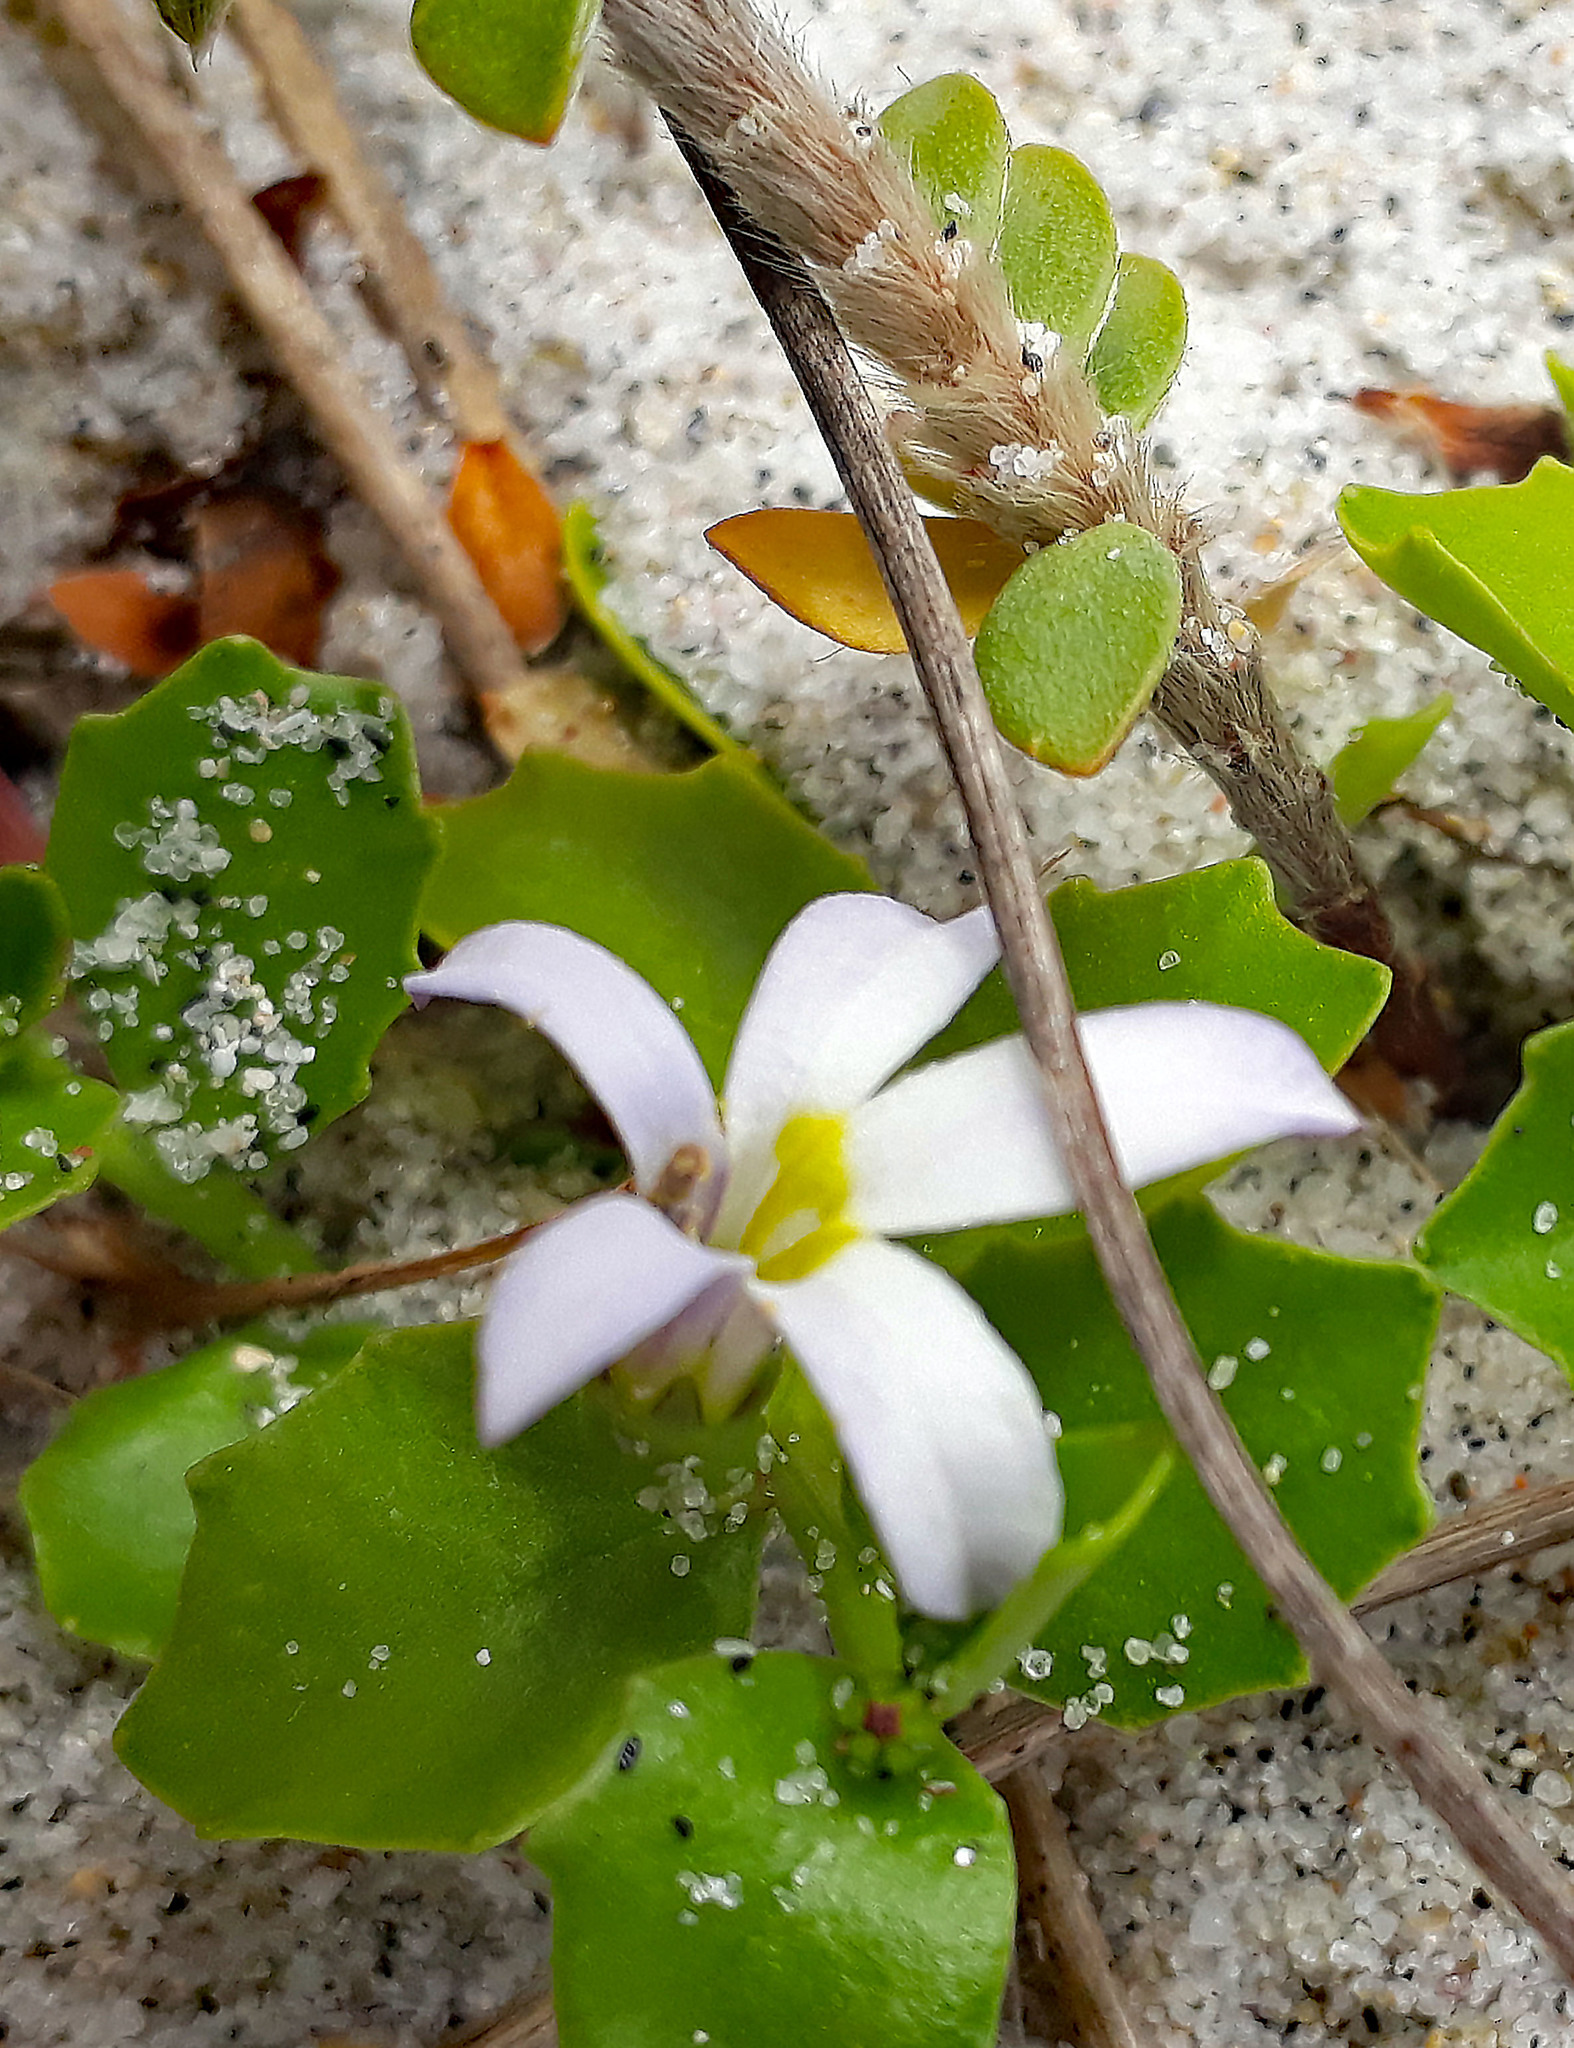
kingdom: Plantae
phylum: Tracheophyta
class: Magnoliopsida
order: Asterales
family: Campanulaceae
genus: Lobelia
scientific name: Lobelia arenaria
